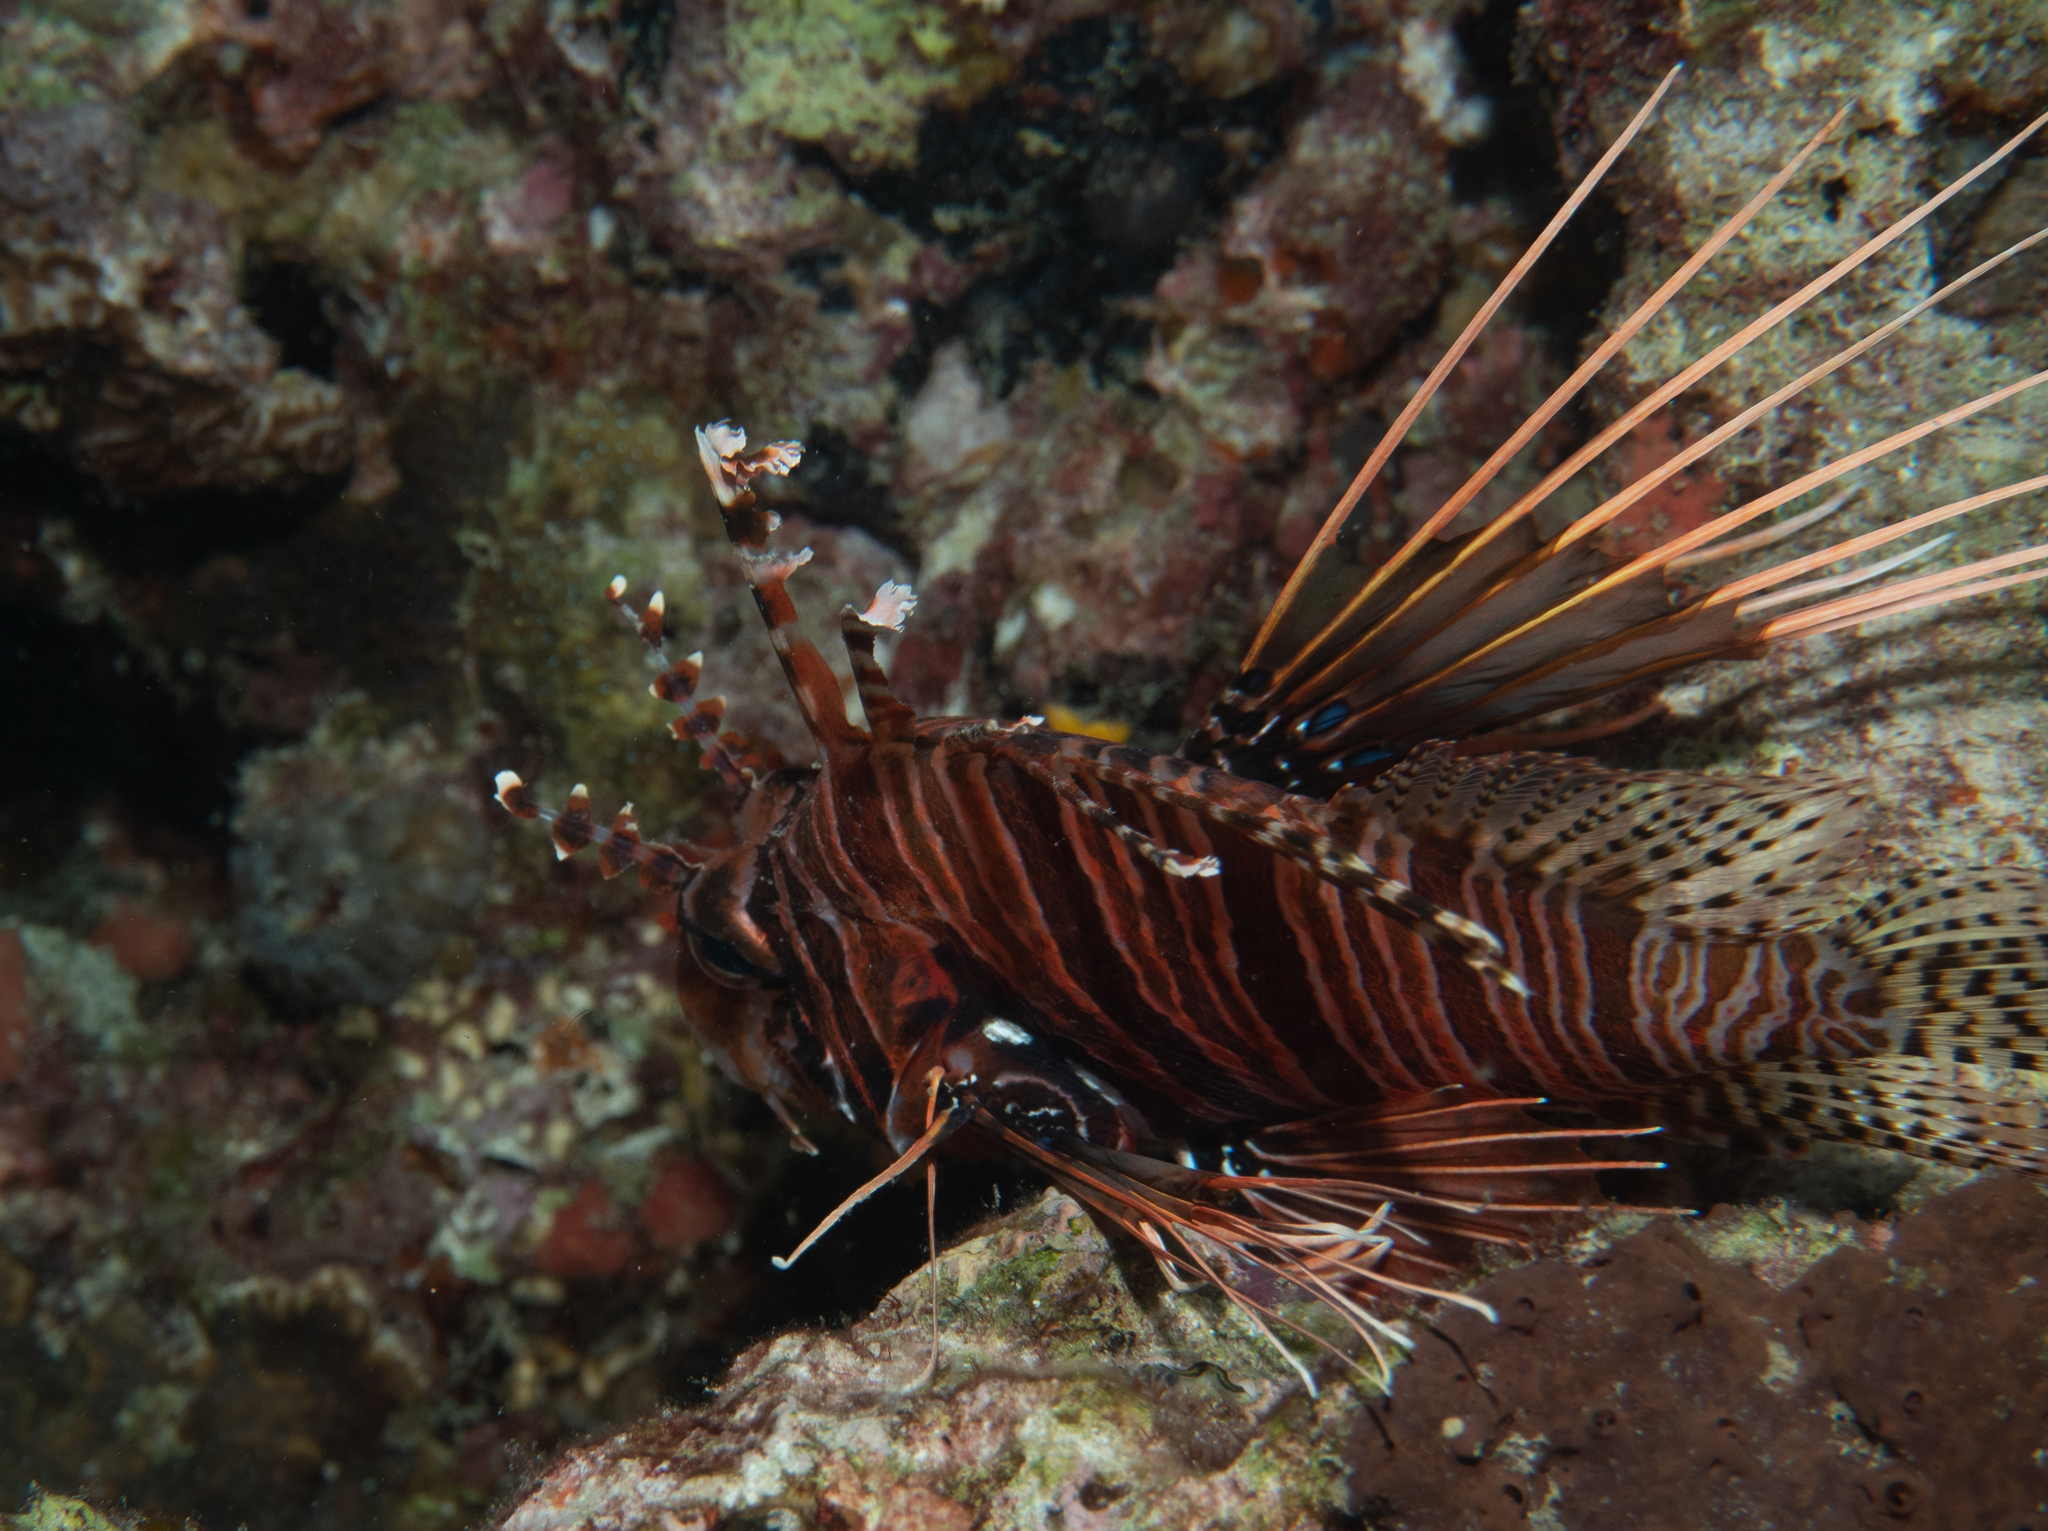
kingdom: Animalia
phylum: Chordata
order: Scorpaeniformes
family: Scorpaenidae
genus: Pterois
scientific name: Pterois antennata
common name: Spotfin lionfish
